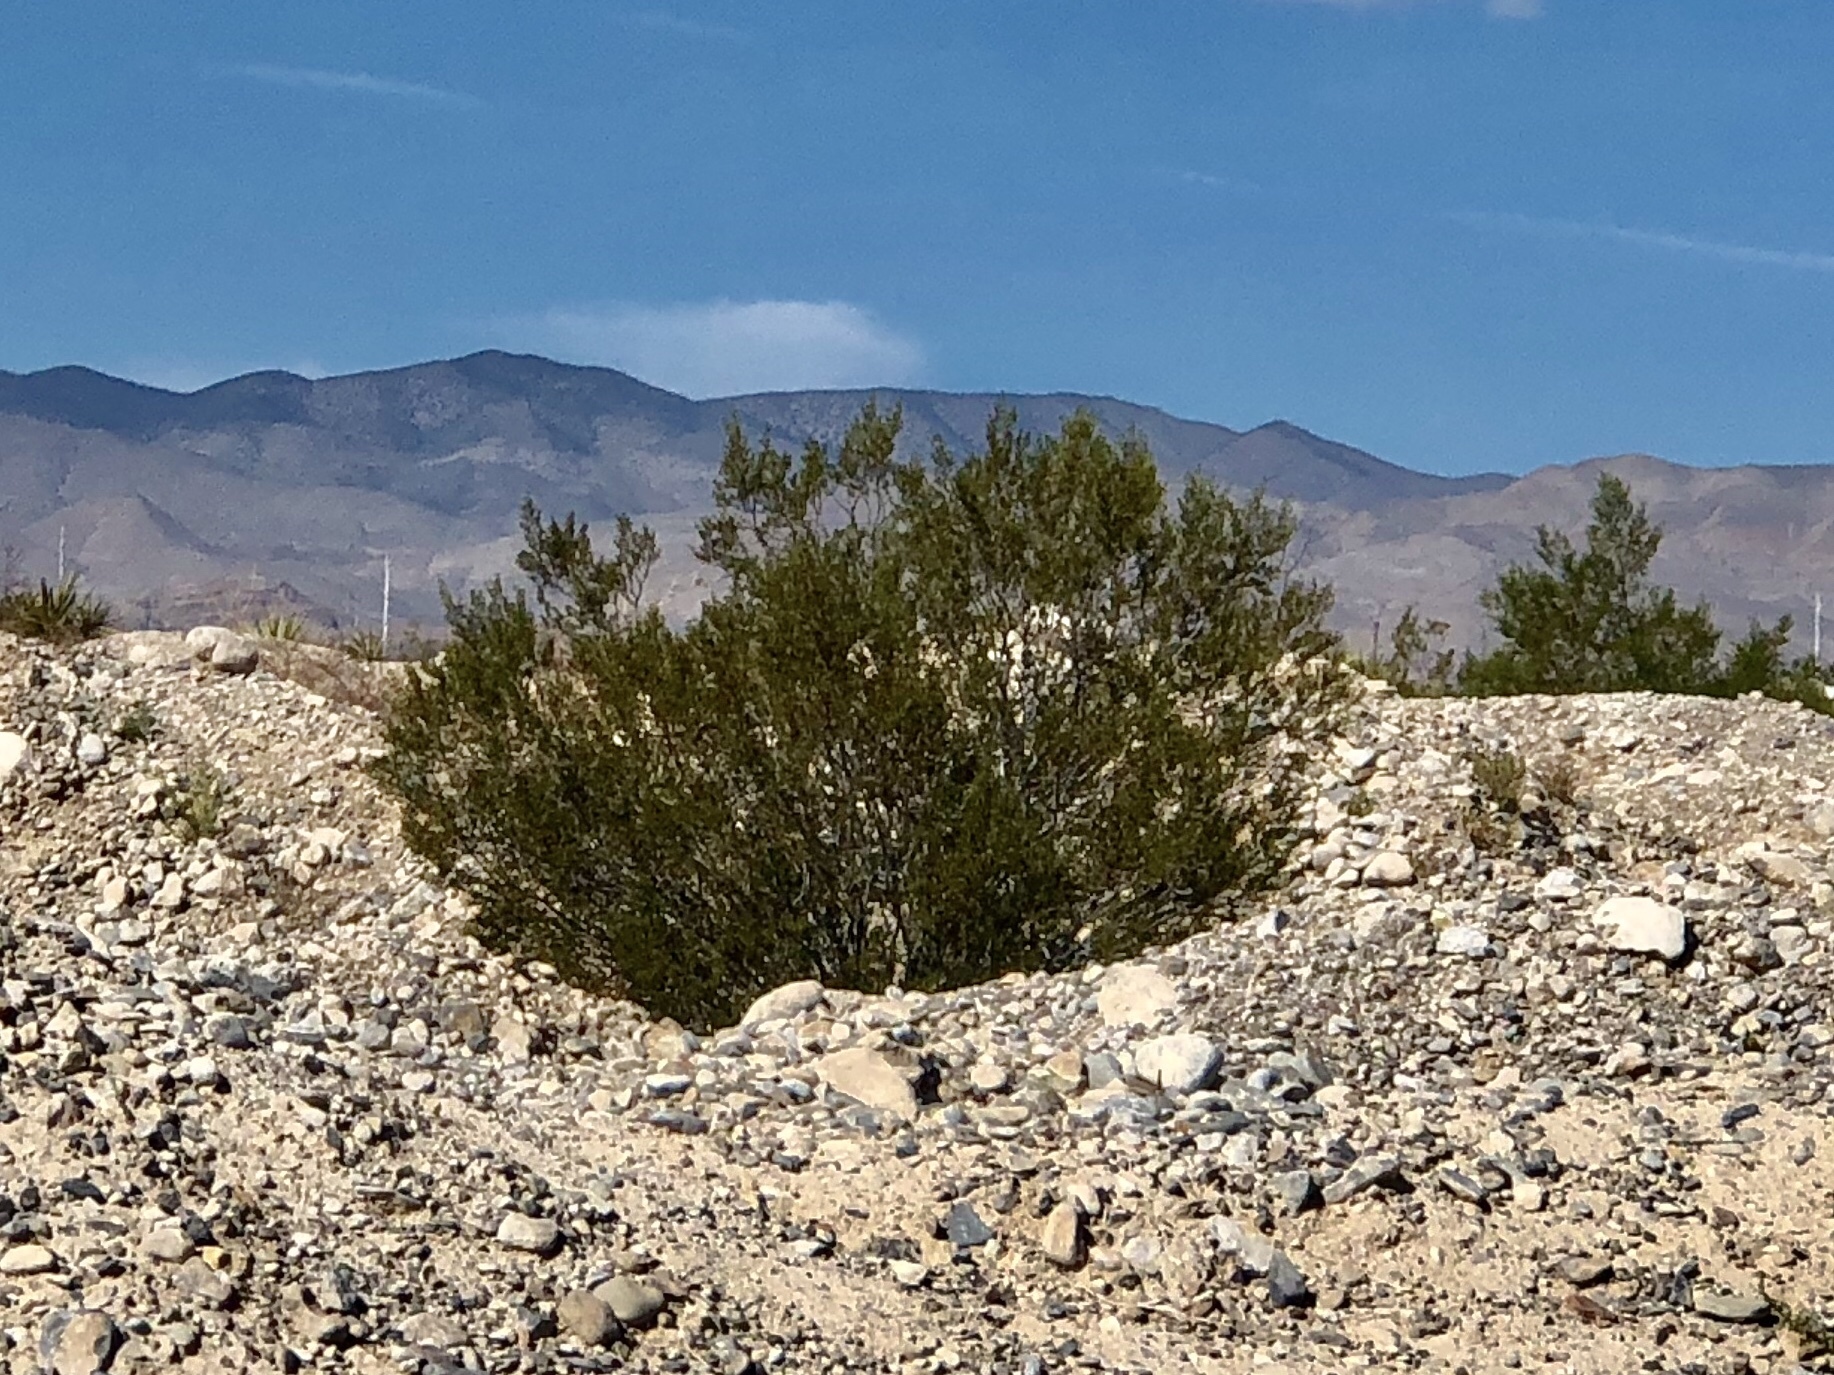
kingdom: Plantae
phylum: Tracheophyta
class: Magnoliopsida
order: Zygophyllales
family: Zygophyllaceae
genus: Larrea
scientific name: Larrea tridentata
